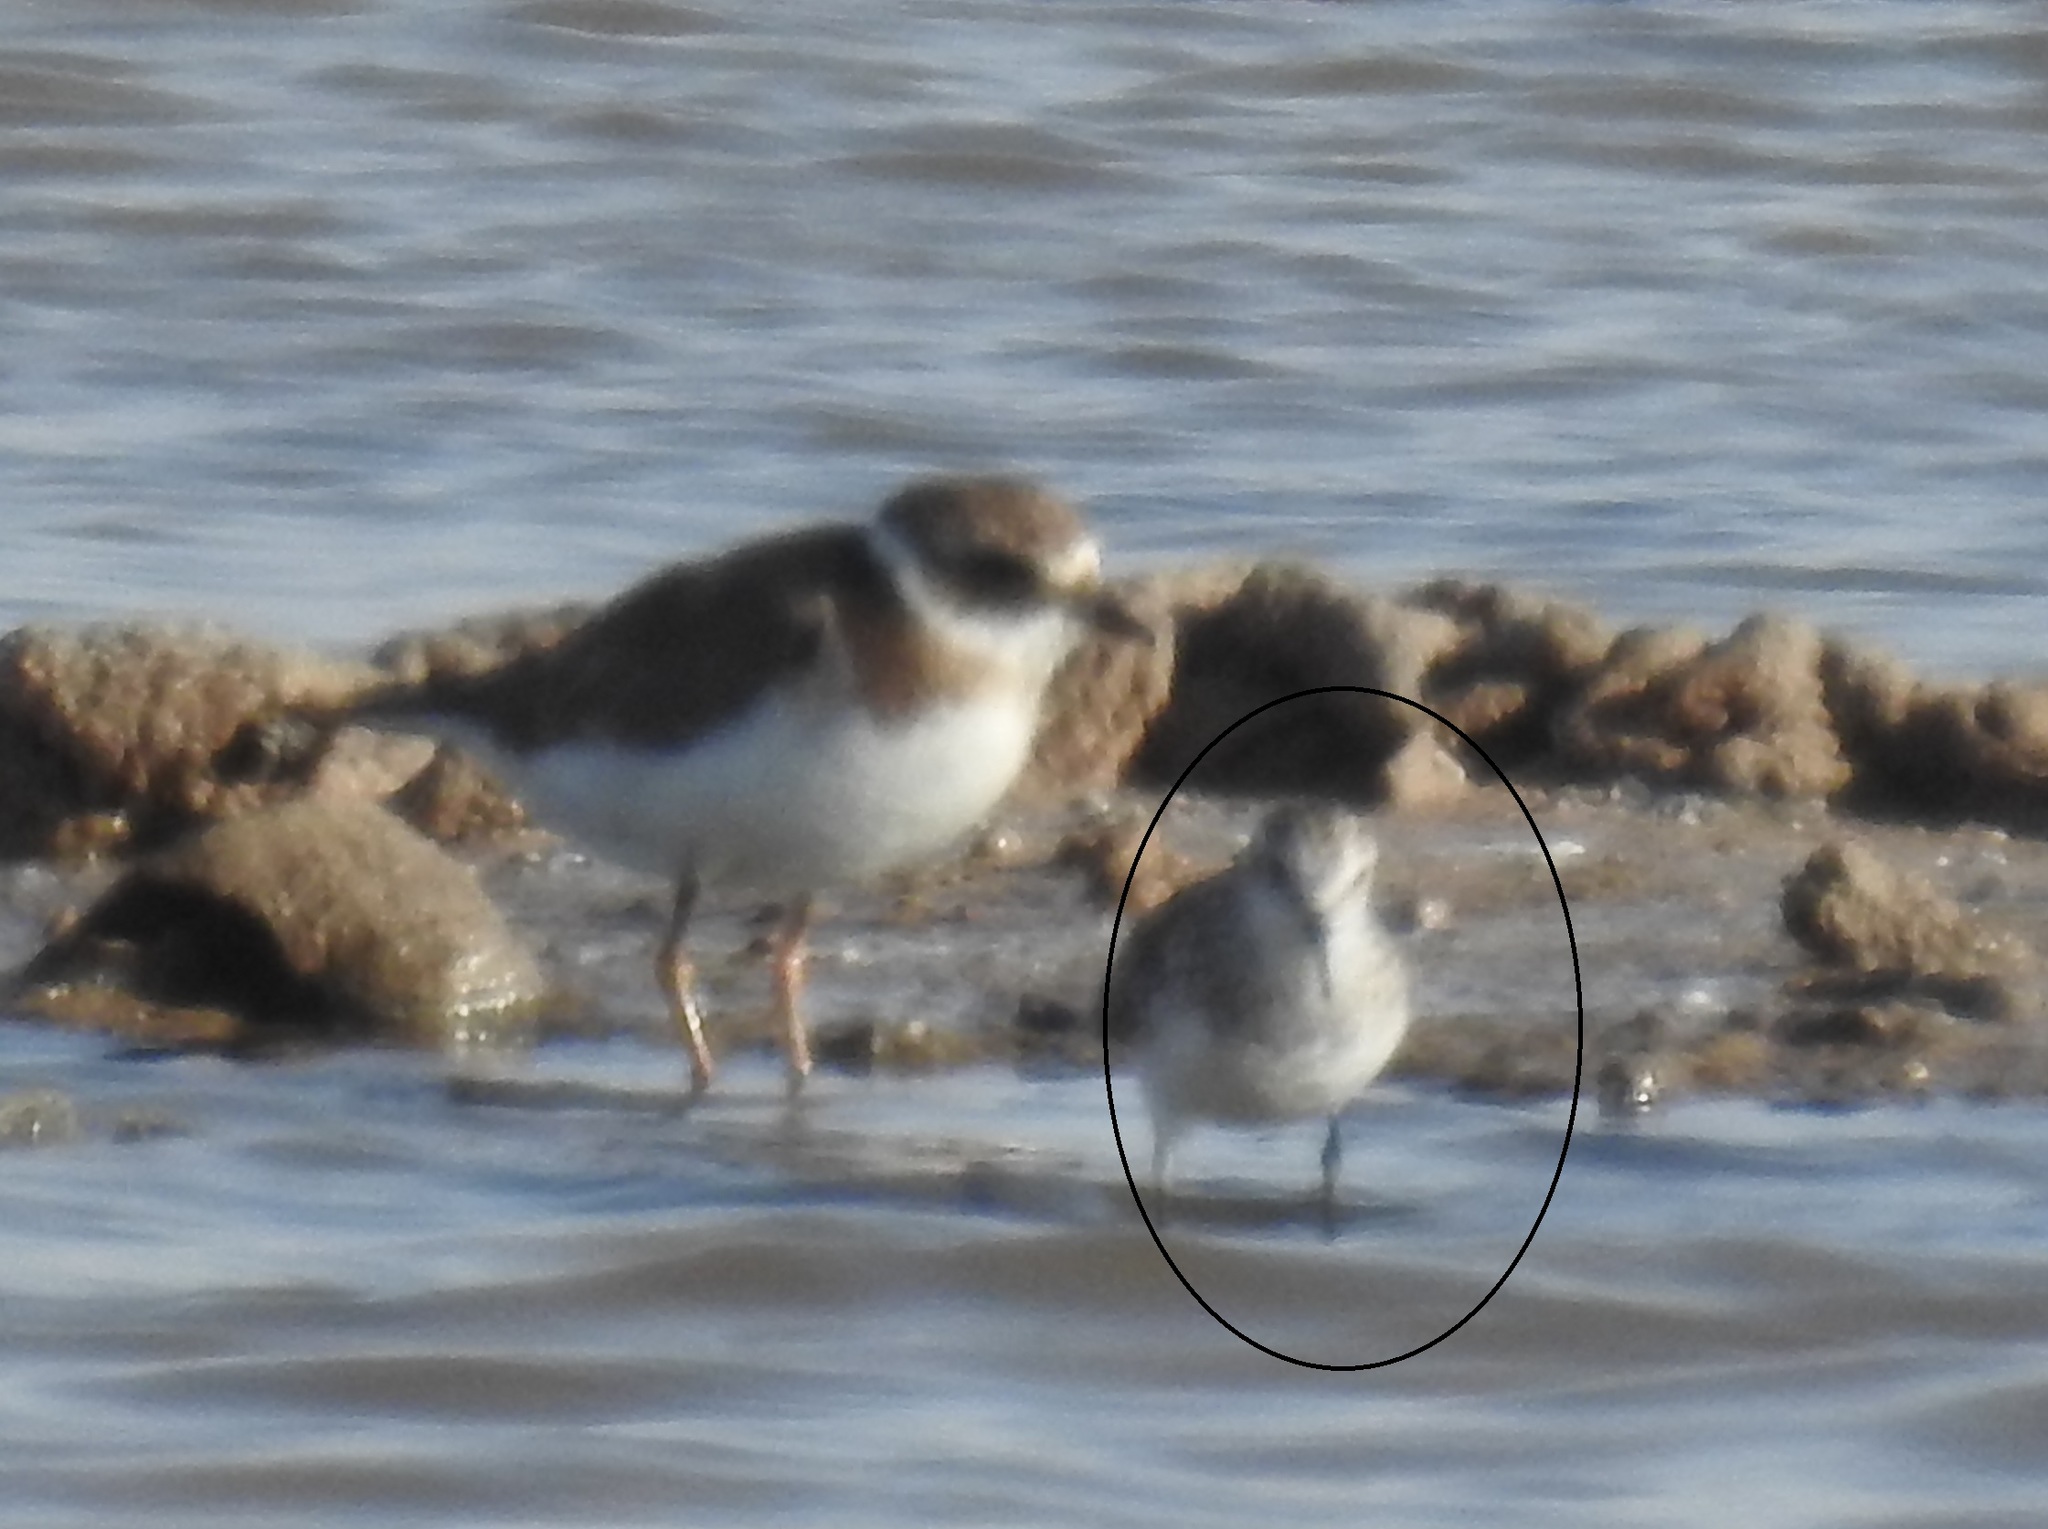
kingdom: Animalia
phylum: Chordata
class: Aves
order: Charadriiformes
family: Scolopacidae
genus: Calidris
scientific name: Calidris minuta
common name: Little stint
